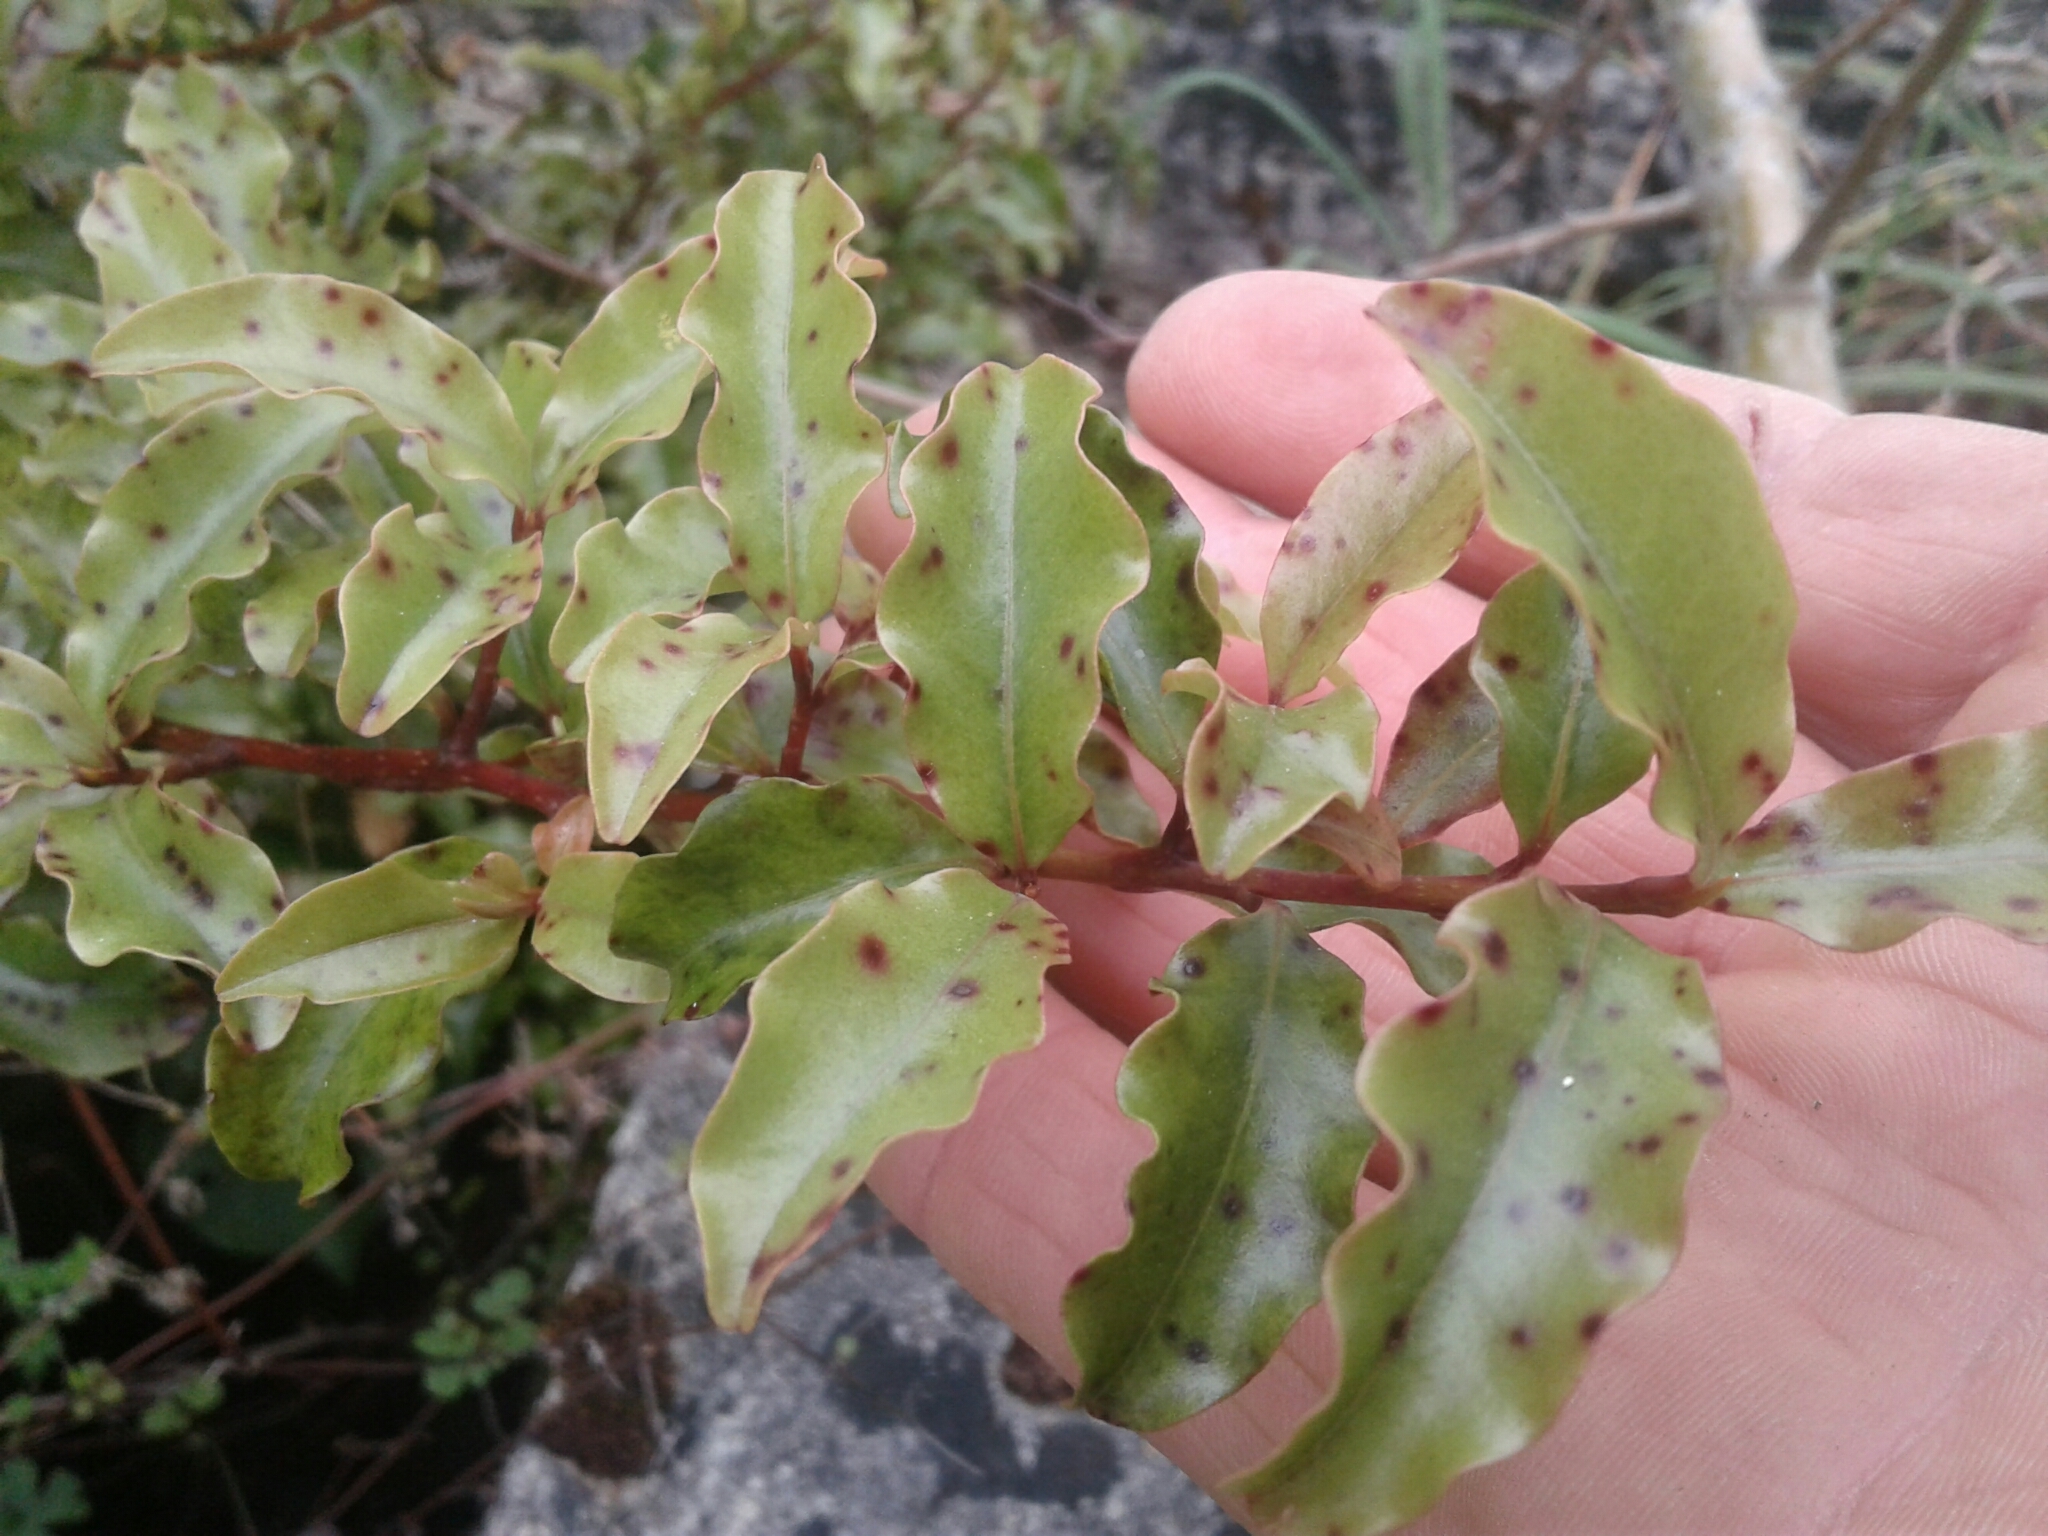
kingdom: Plantae
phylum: Tracheophyta
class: Magnoliopsida
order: Ericales
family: Primulaceae
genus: Myrsine
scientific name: Myrsine australis
